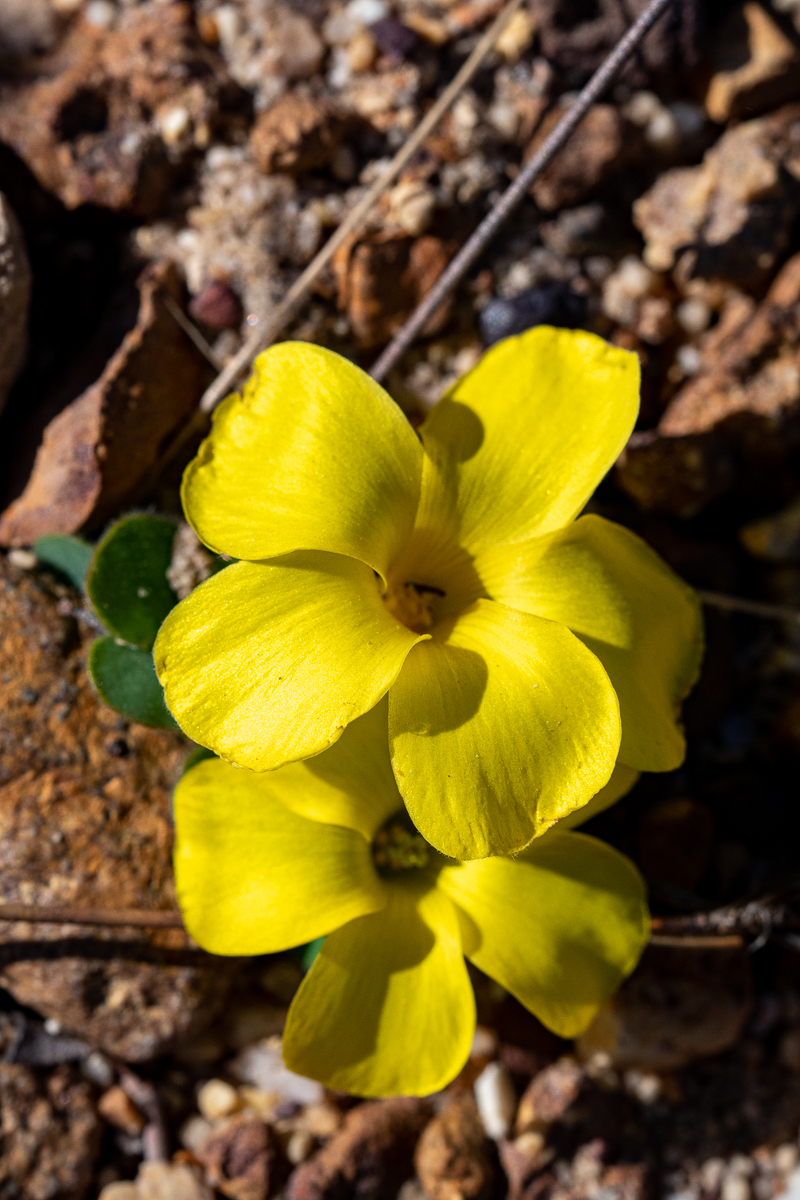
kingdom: Plantae
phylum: Tracheophyta
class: Magnoliopsida
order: Oxalidales
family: Oxalidaceae
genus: Oxalis
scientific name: Oxalis luteola
